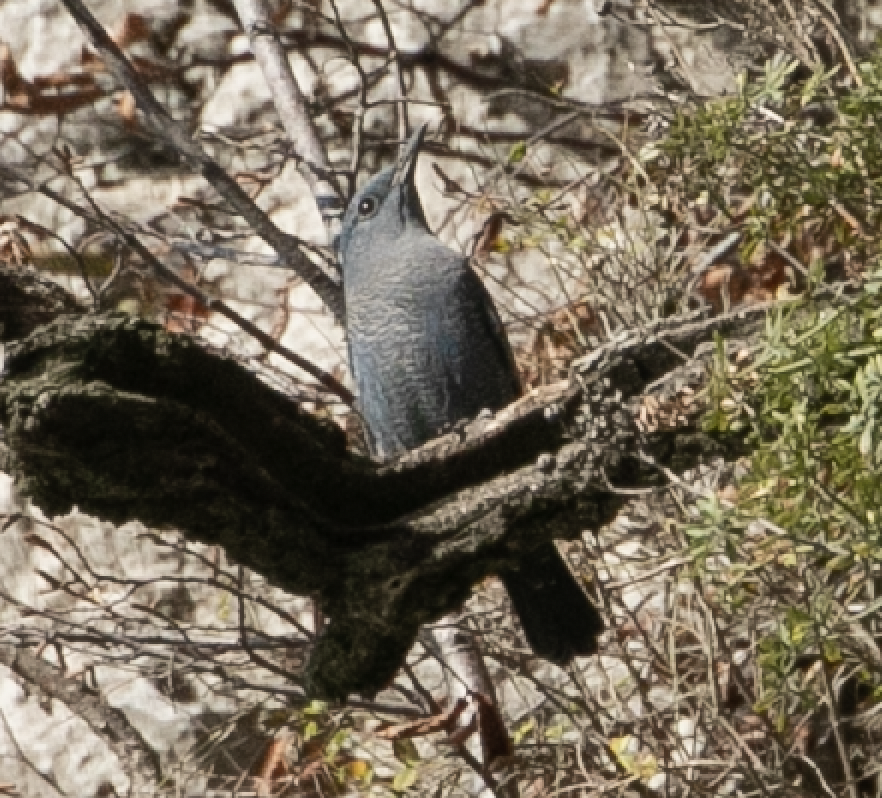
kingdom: Animalia
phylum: Chordata
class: Aves
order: Passeriformes
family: Muscicapidae
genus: Monticola
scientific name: Monticola solitarius
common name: Blue rock thrush
